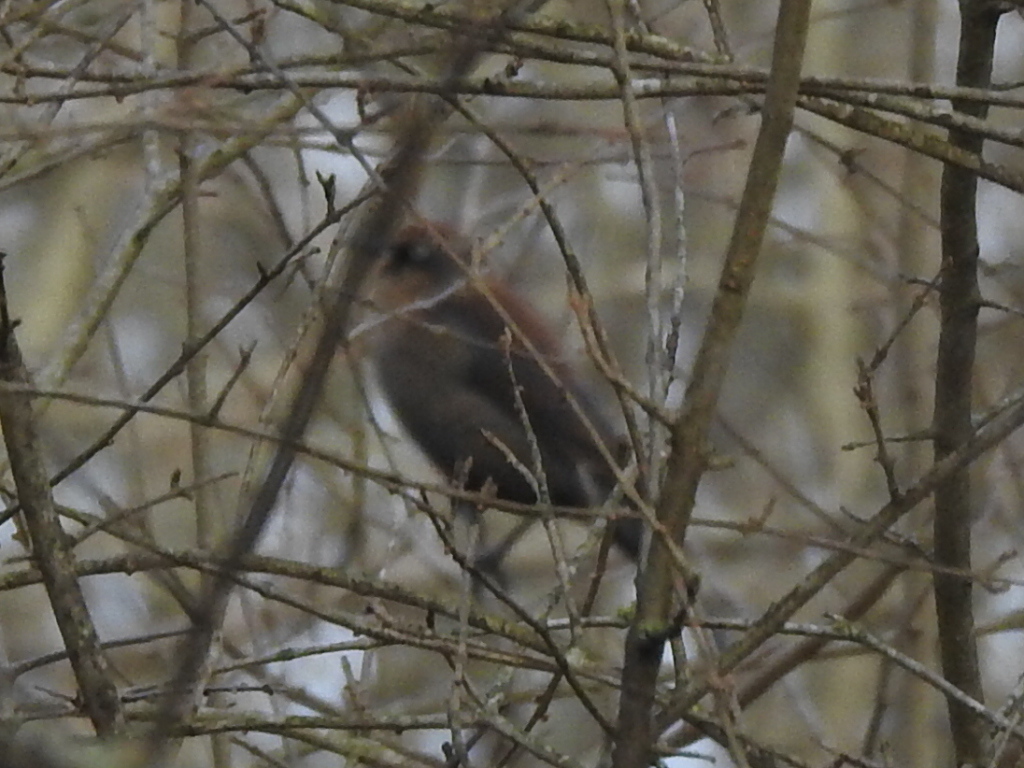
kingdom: Animalia
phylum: Chordata
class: Aves
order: Passeriformes
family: Icteridae
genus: Euphagus
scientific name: Euphagus carolinus
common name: Rusty blackbird
